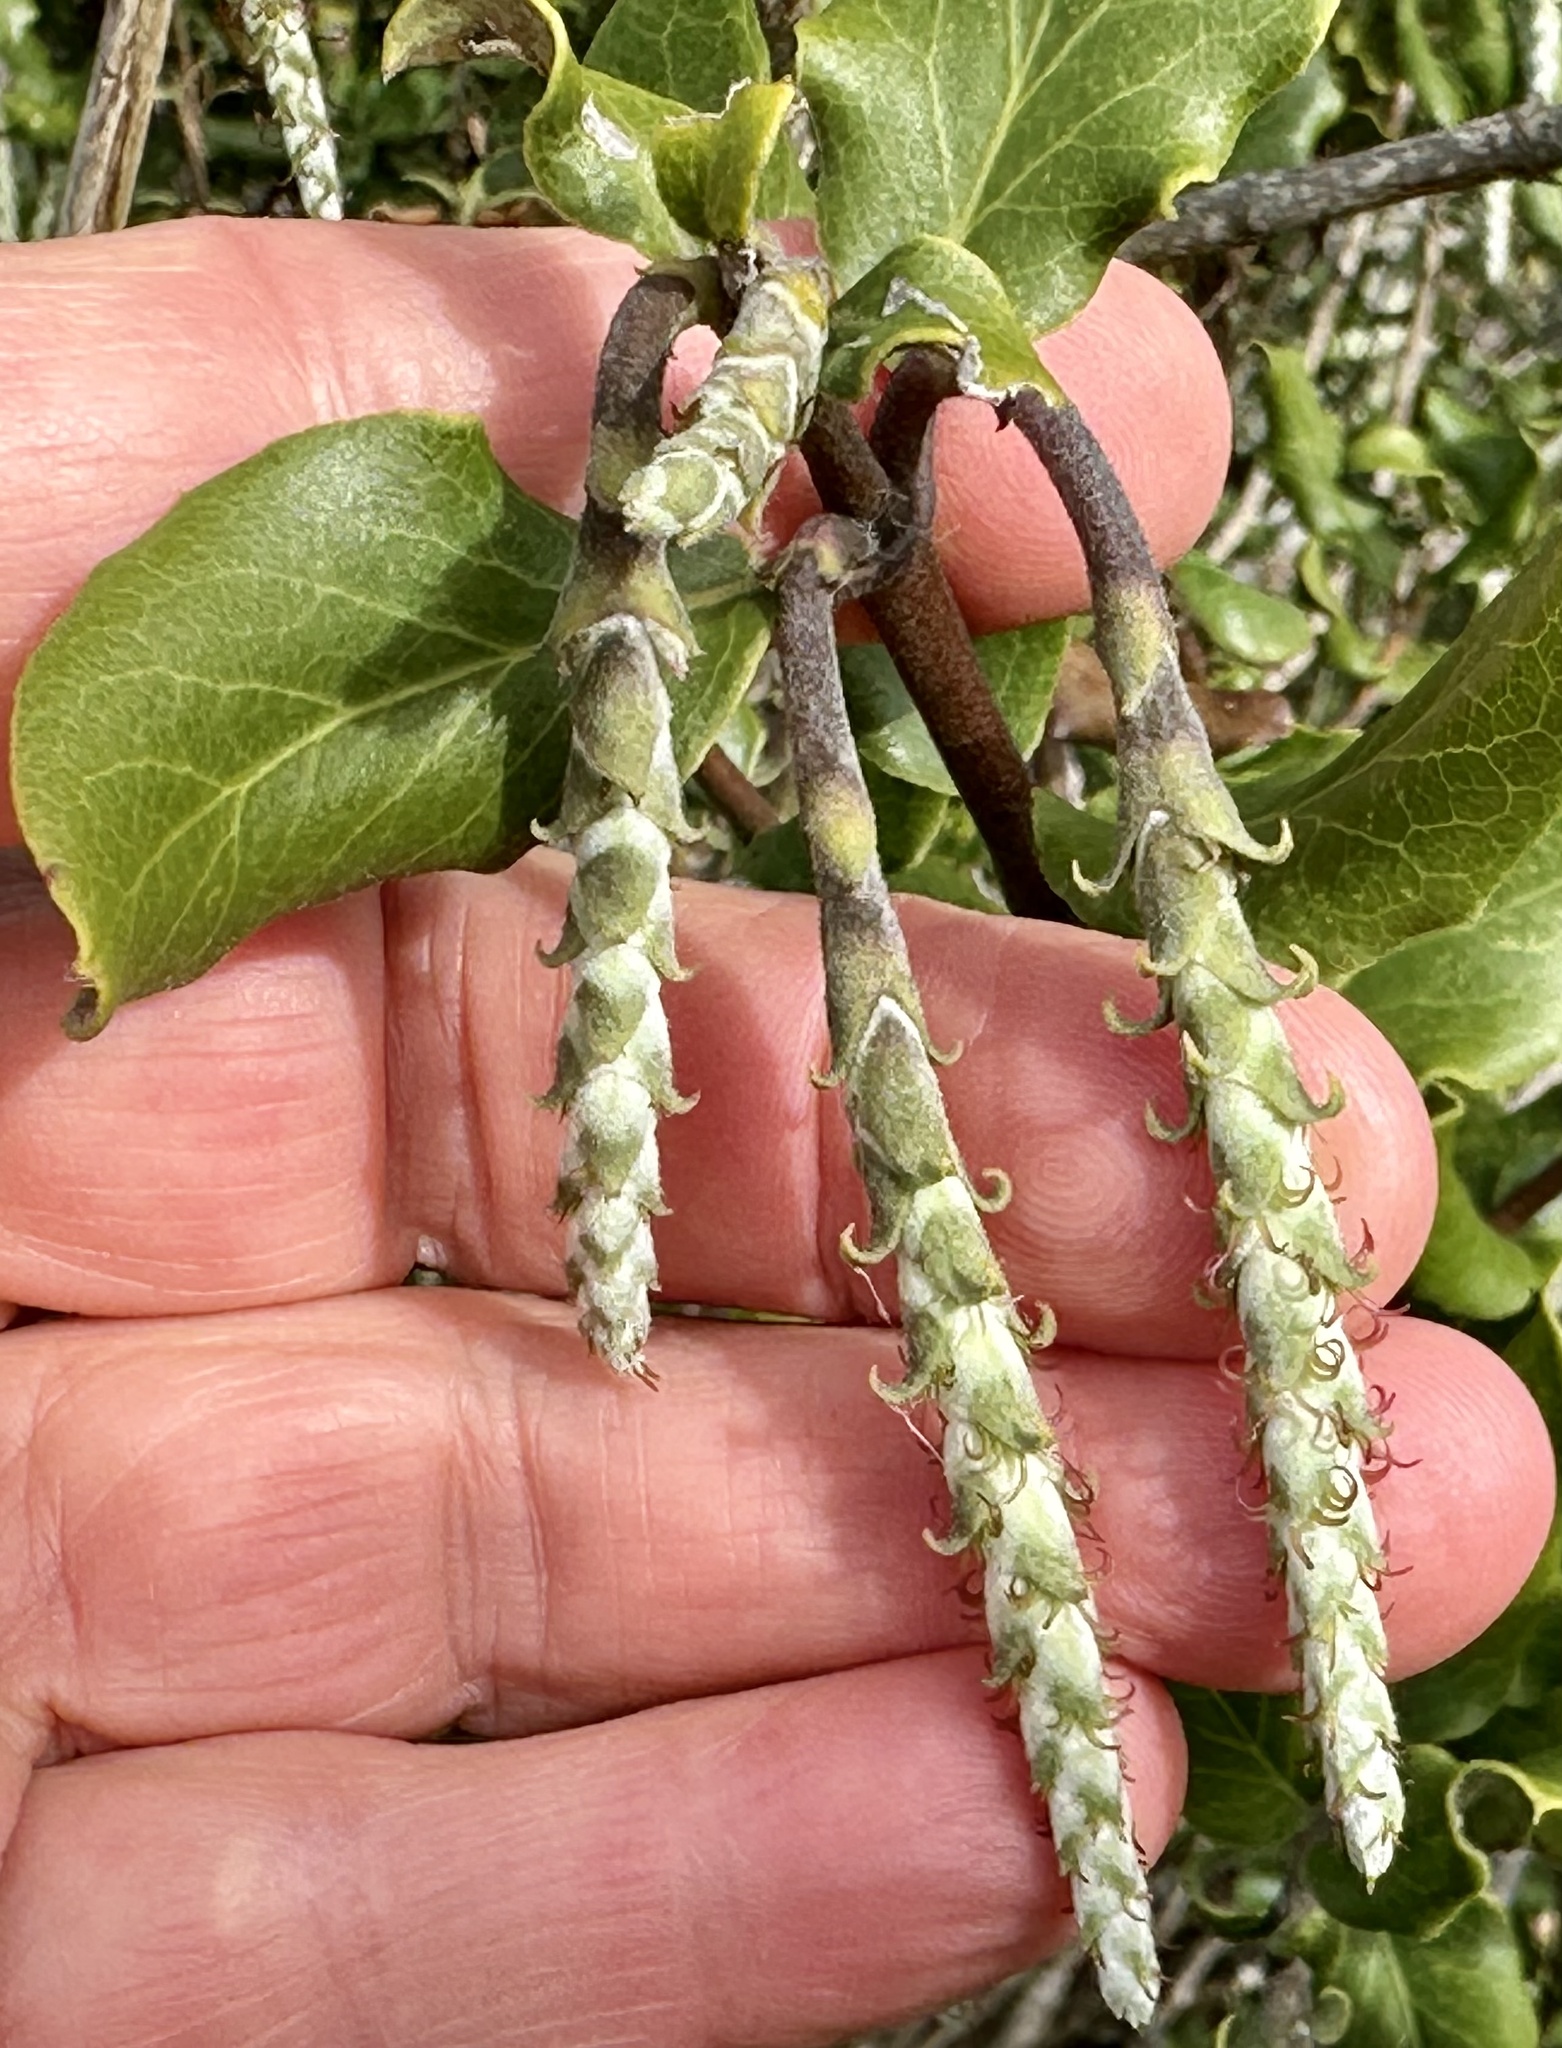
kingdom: Plantae
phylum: Tracheophyta
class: Magnoliopsida
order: Garryales
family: Garryaceae
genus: Garrya
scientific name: Garrya elliptica
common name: Silk-tassel
